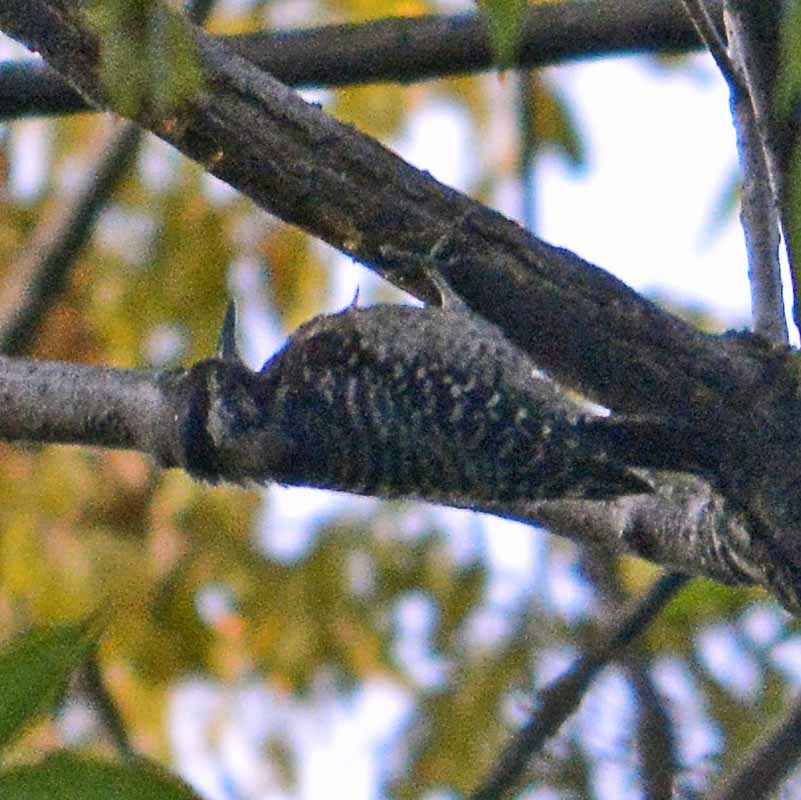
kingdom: Animalia
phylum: Chordata
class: Aves
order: Piciformes
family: Picidae
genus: Dryobates
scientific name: Dryobates scalaris
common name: Ladder-backed woodpecker
